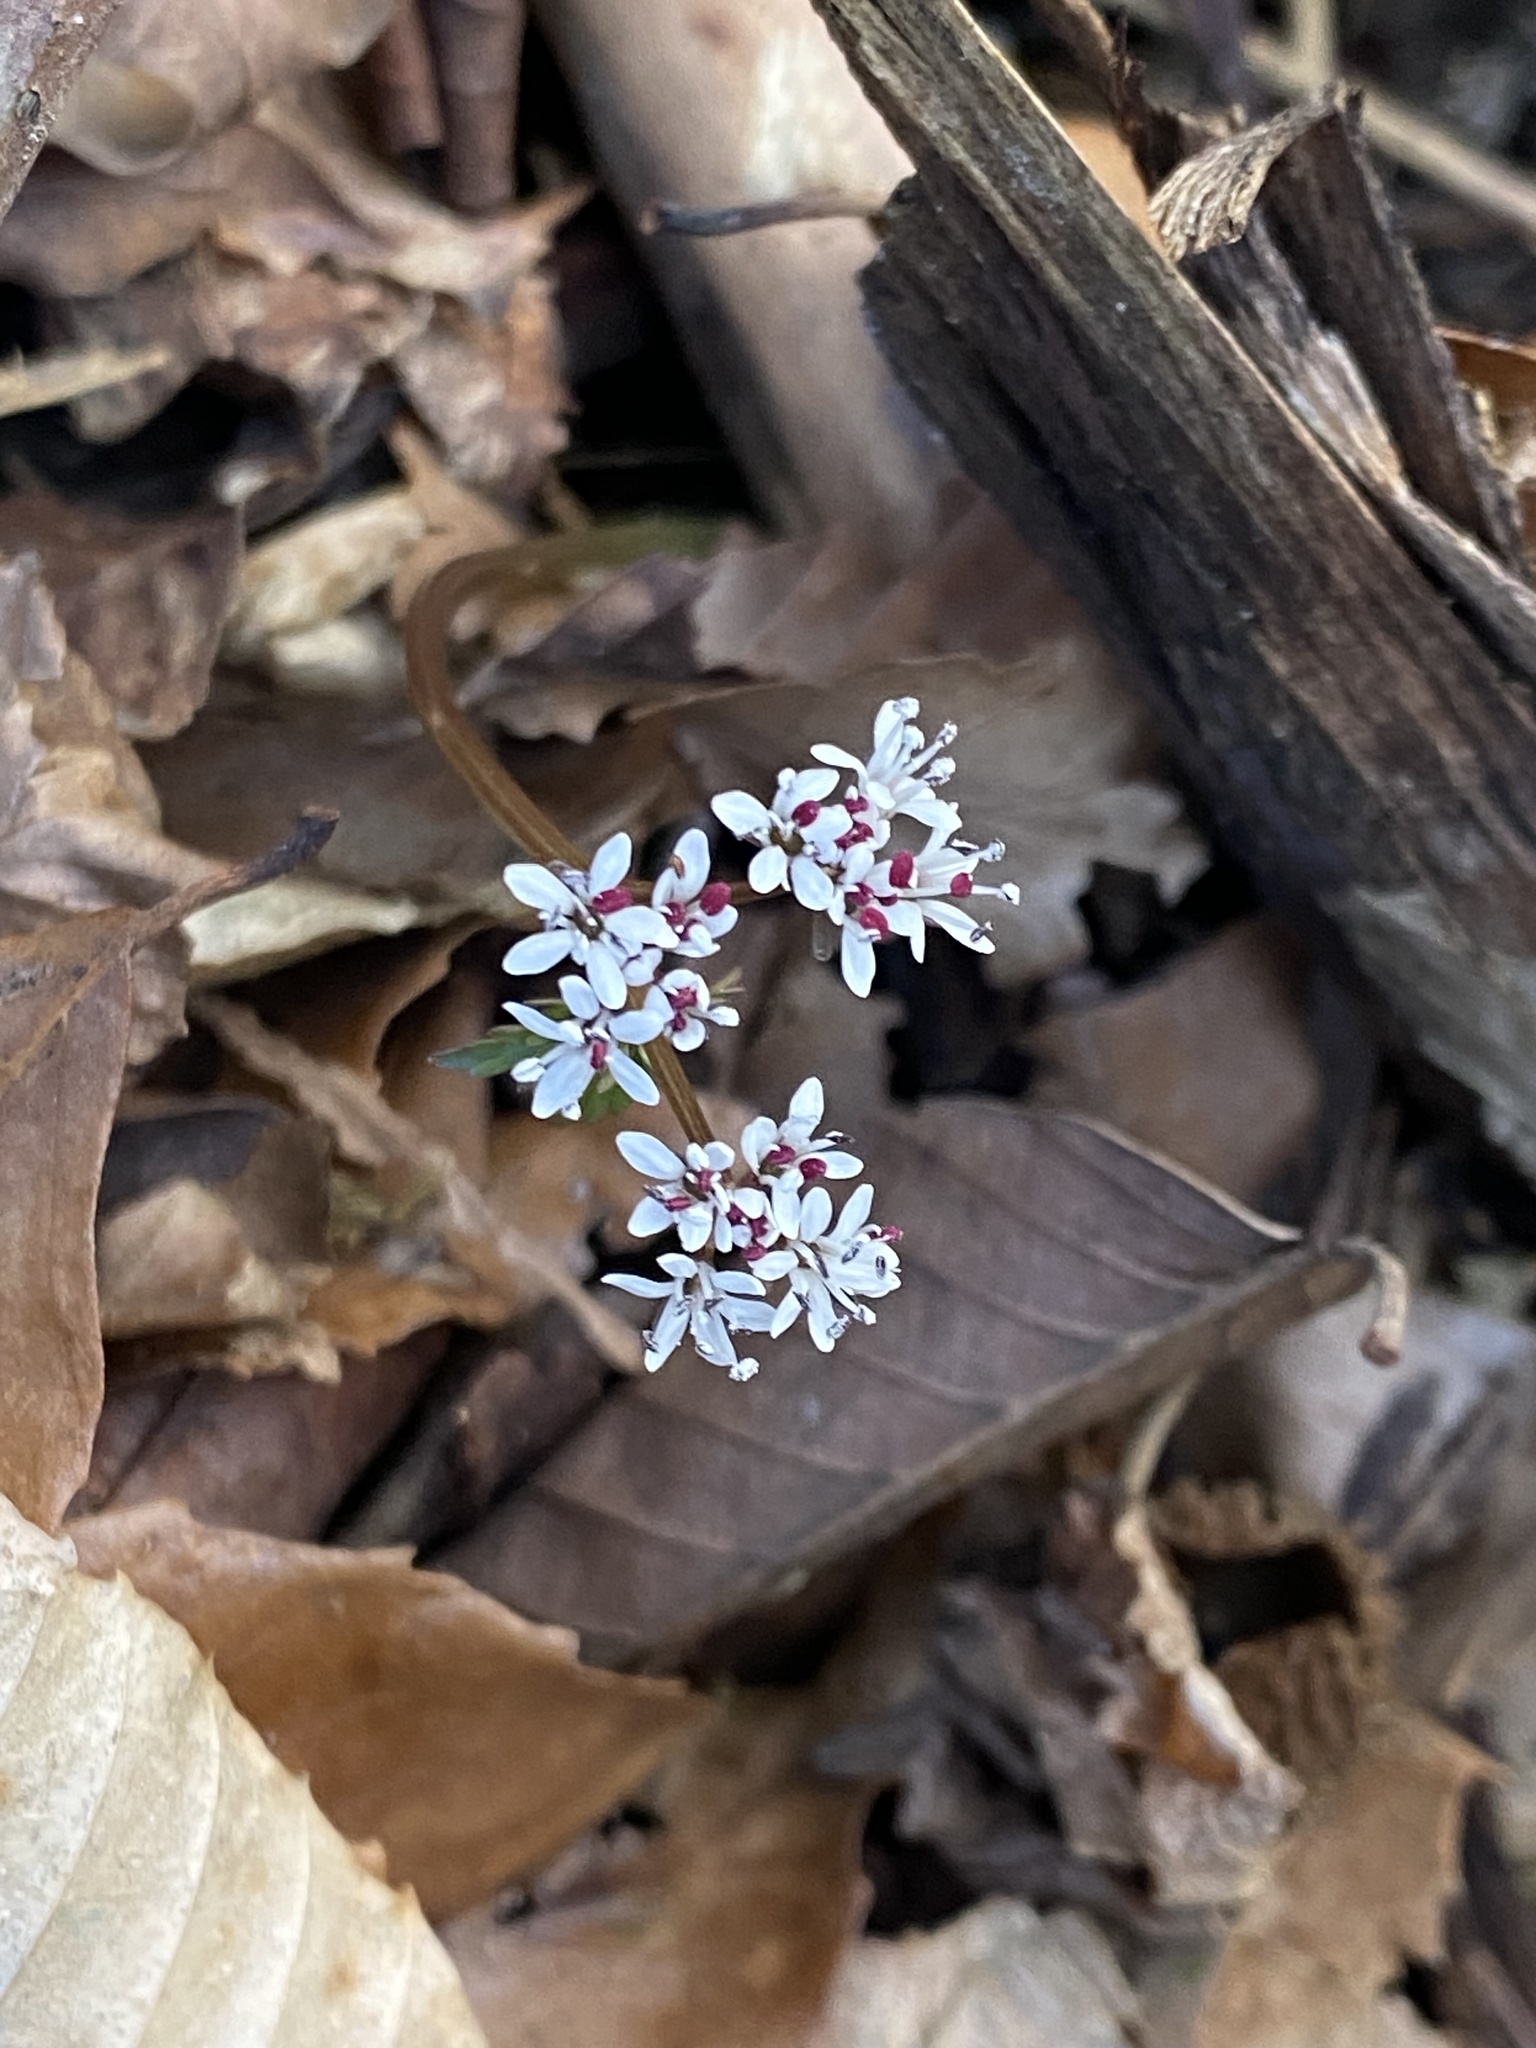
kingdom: Plantae
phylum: Tracheophyta
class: Magnoliopsida
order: Apiales
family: Apiaceae
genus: Erigenia
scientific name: Erigenia bulbosa
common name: Pepper-and-salt
